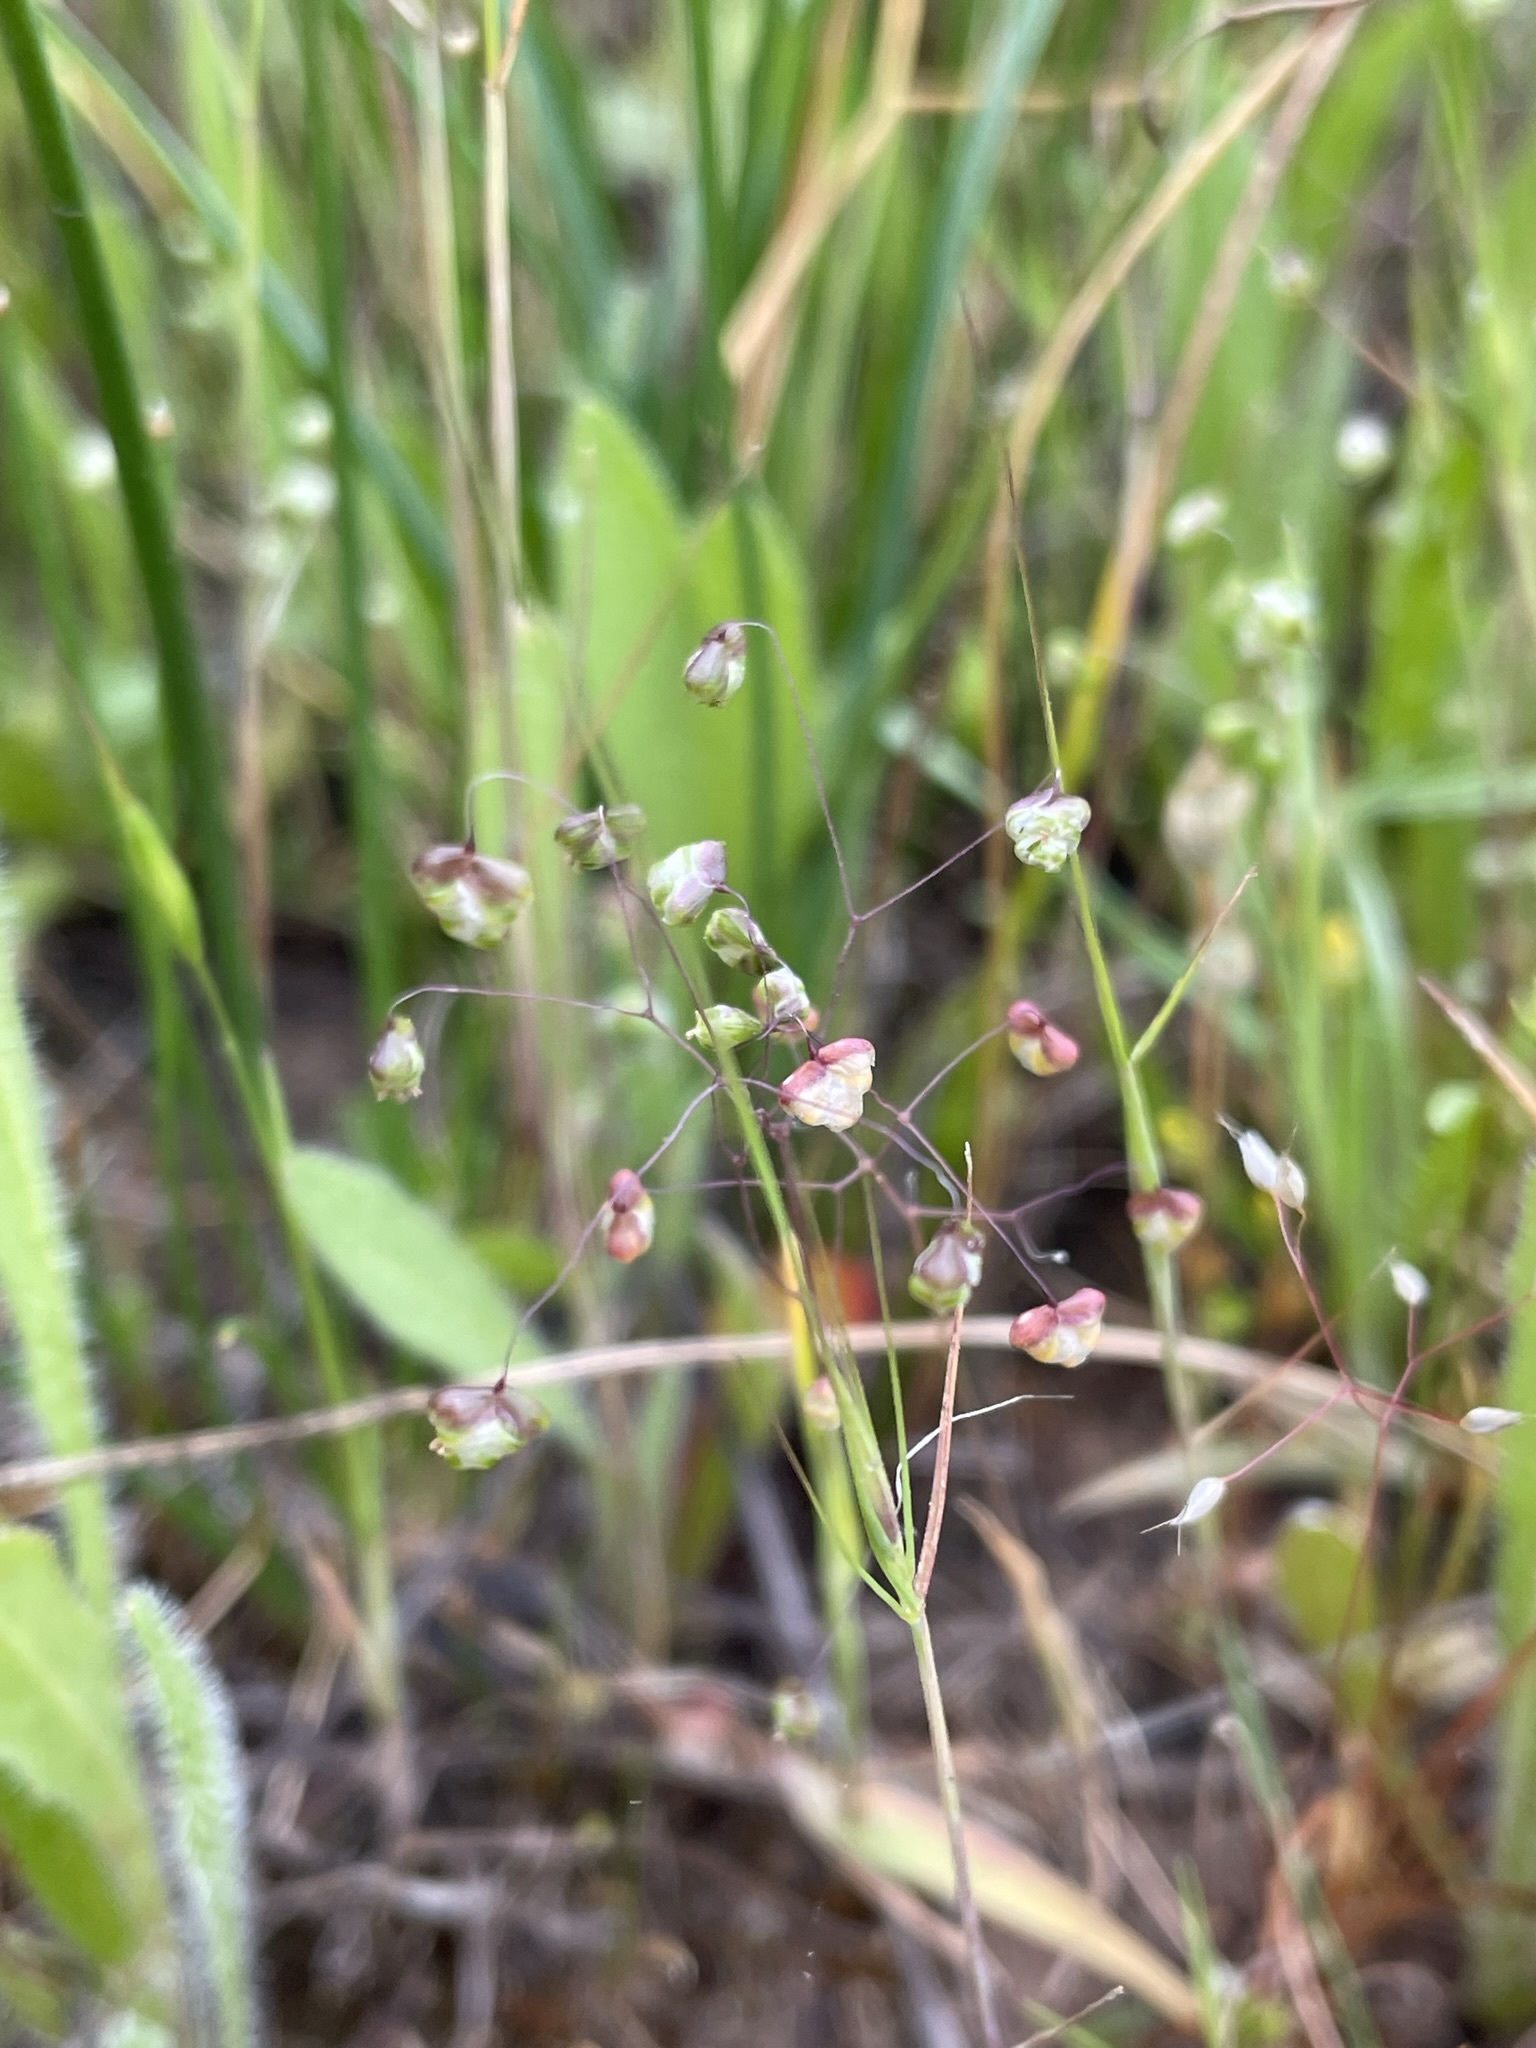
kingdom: Plantae
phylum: Tracheophyta
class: Liliopsida
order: Poales
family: Poaceae
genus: Briza
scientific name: Briza minor
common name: Lesser quaking-grass
